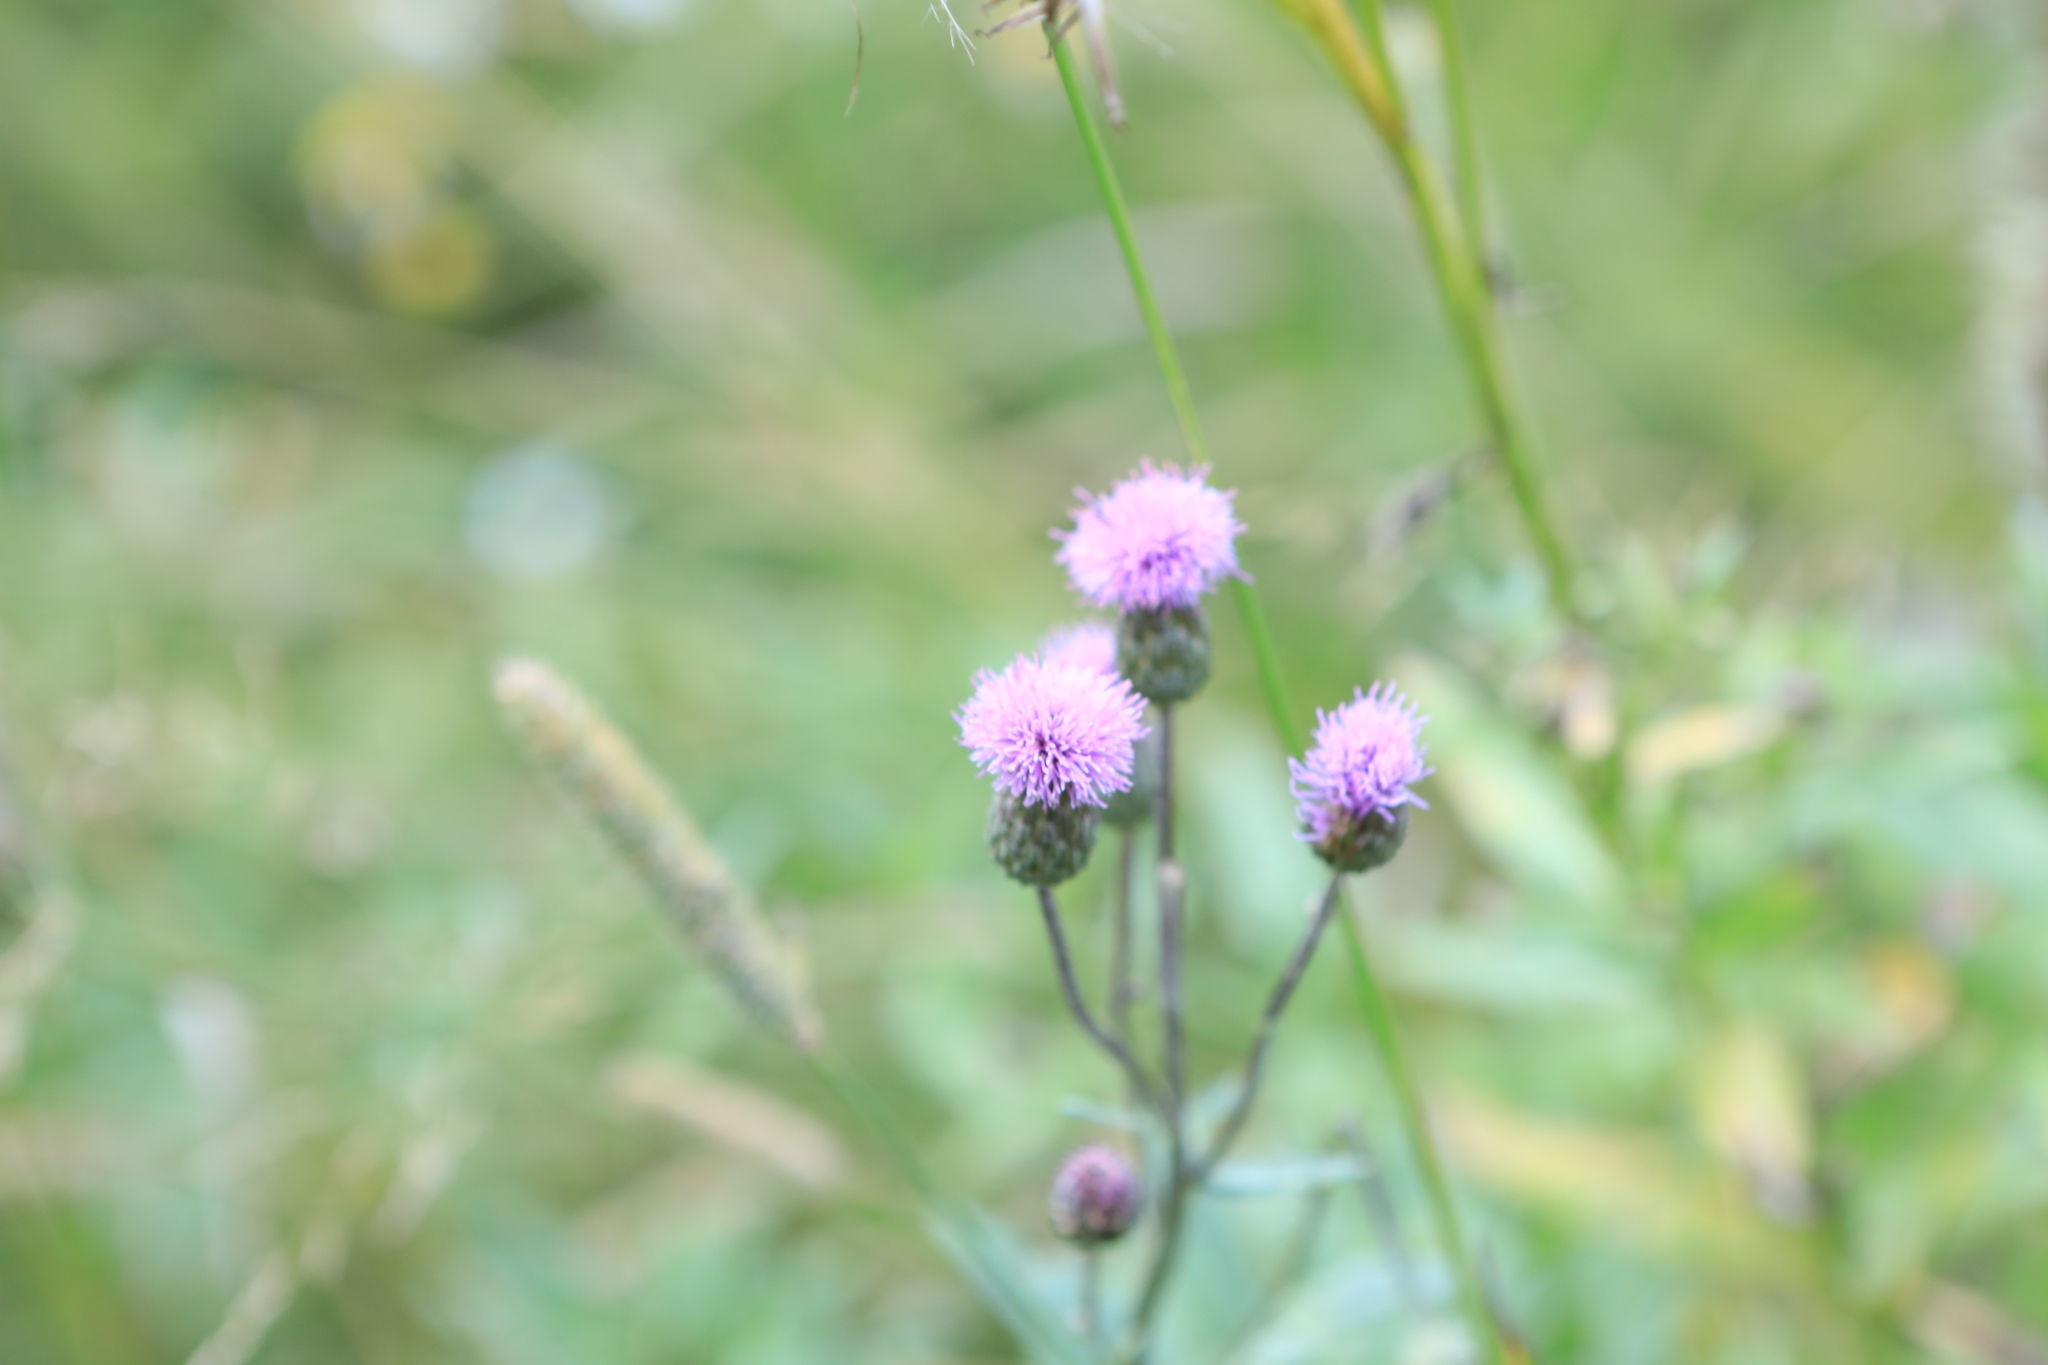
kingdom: Plantae
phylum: Tracheophyta
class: Magnoliopsida
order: Asterales
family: Asteraceae
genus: Cirsium
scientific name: Cirsium arvense
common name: Creeping thistle
